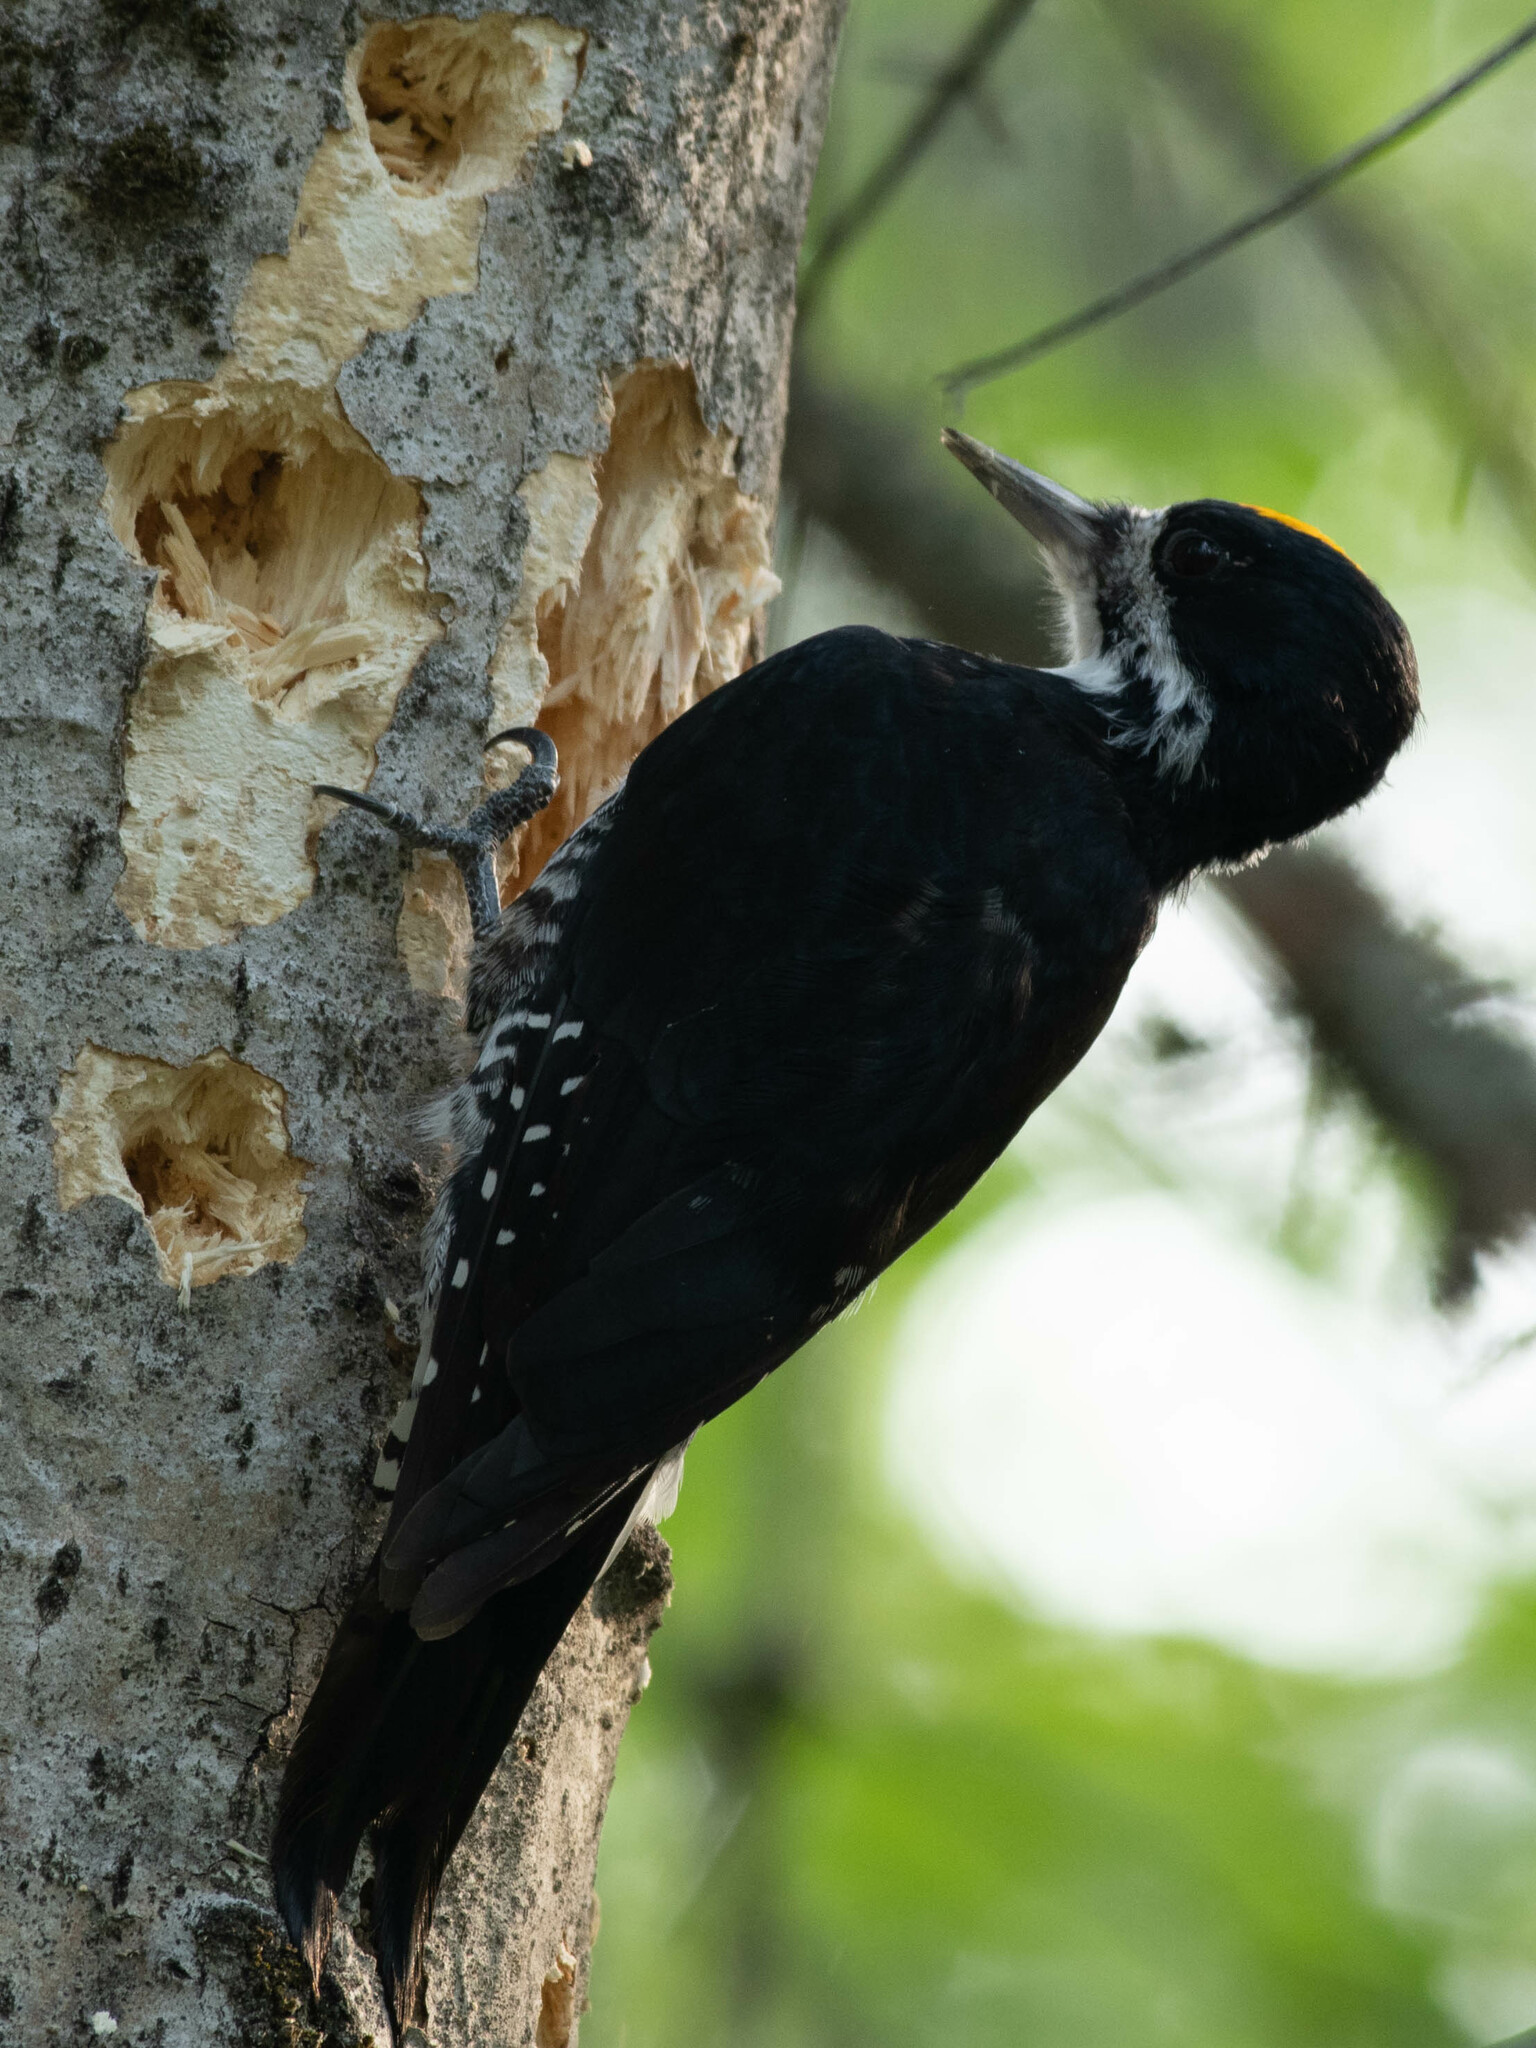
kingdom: Animalia
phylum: Chordata
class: Aves
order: Piciformes
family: Picidae
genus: Picoides
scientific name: Picoides arcticus
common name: Black-backed woodpecker
